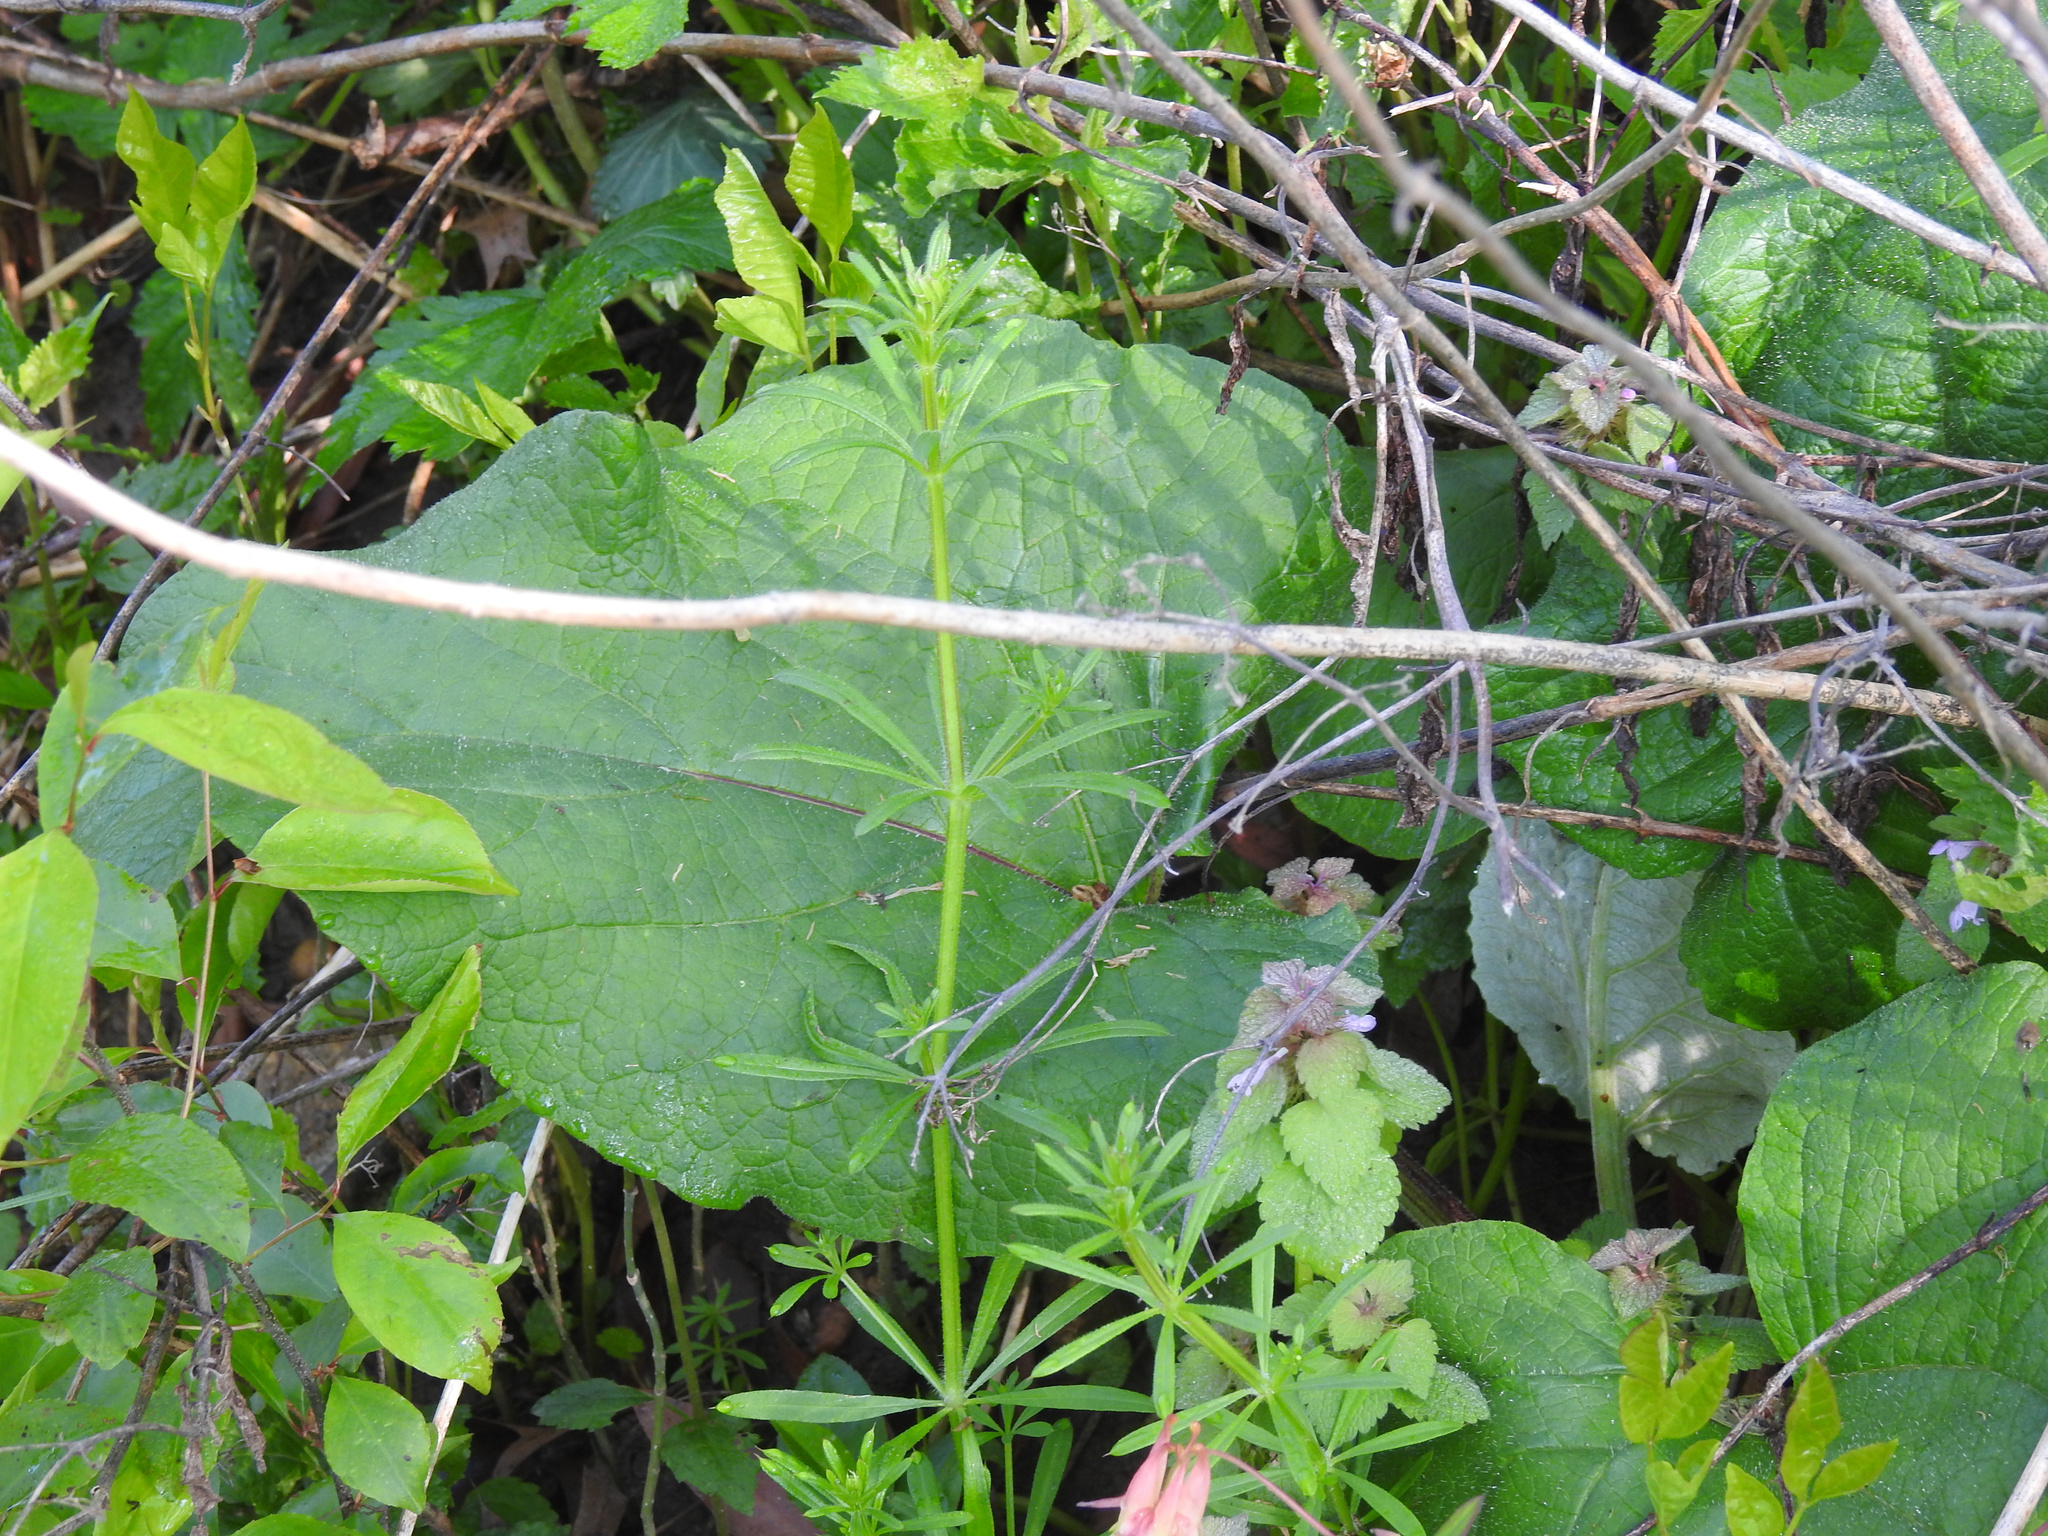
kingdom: Plantae
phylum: Tracheophyta
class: Magnoliopsida
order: Asterales
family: Asteraceae
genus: Arctium
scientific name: Arctium
